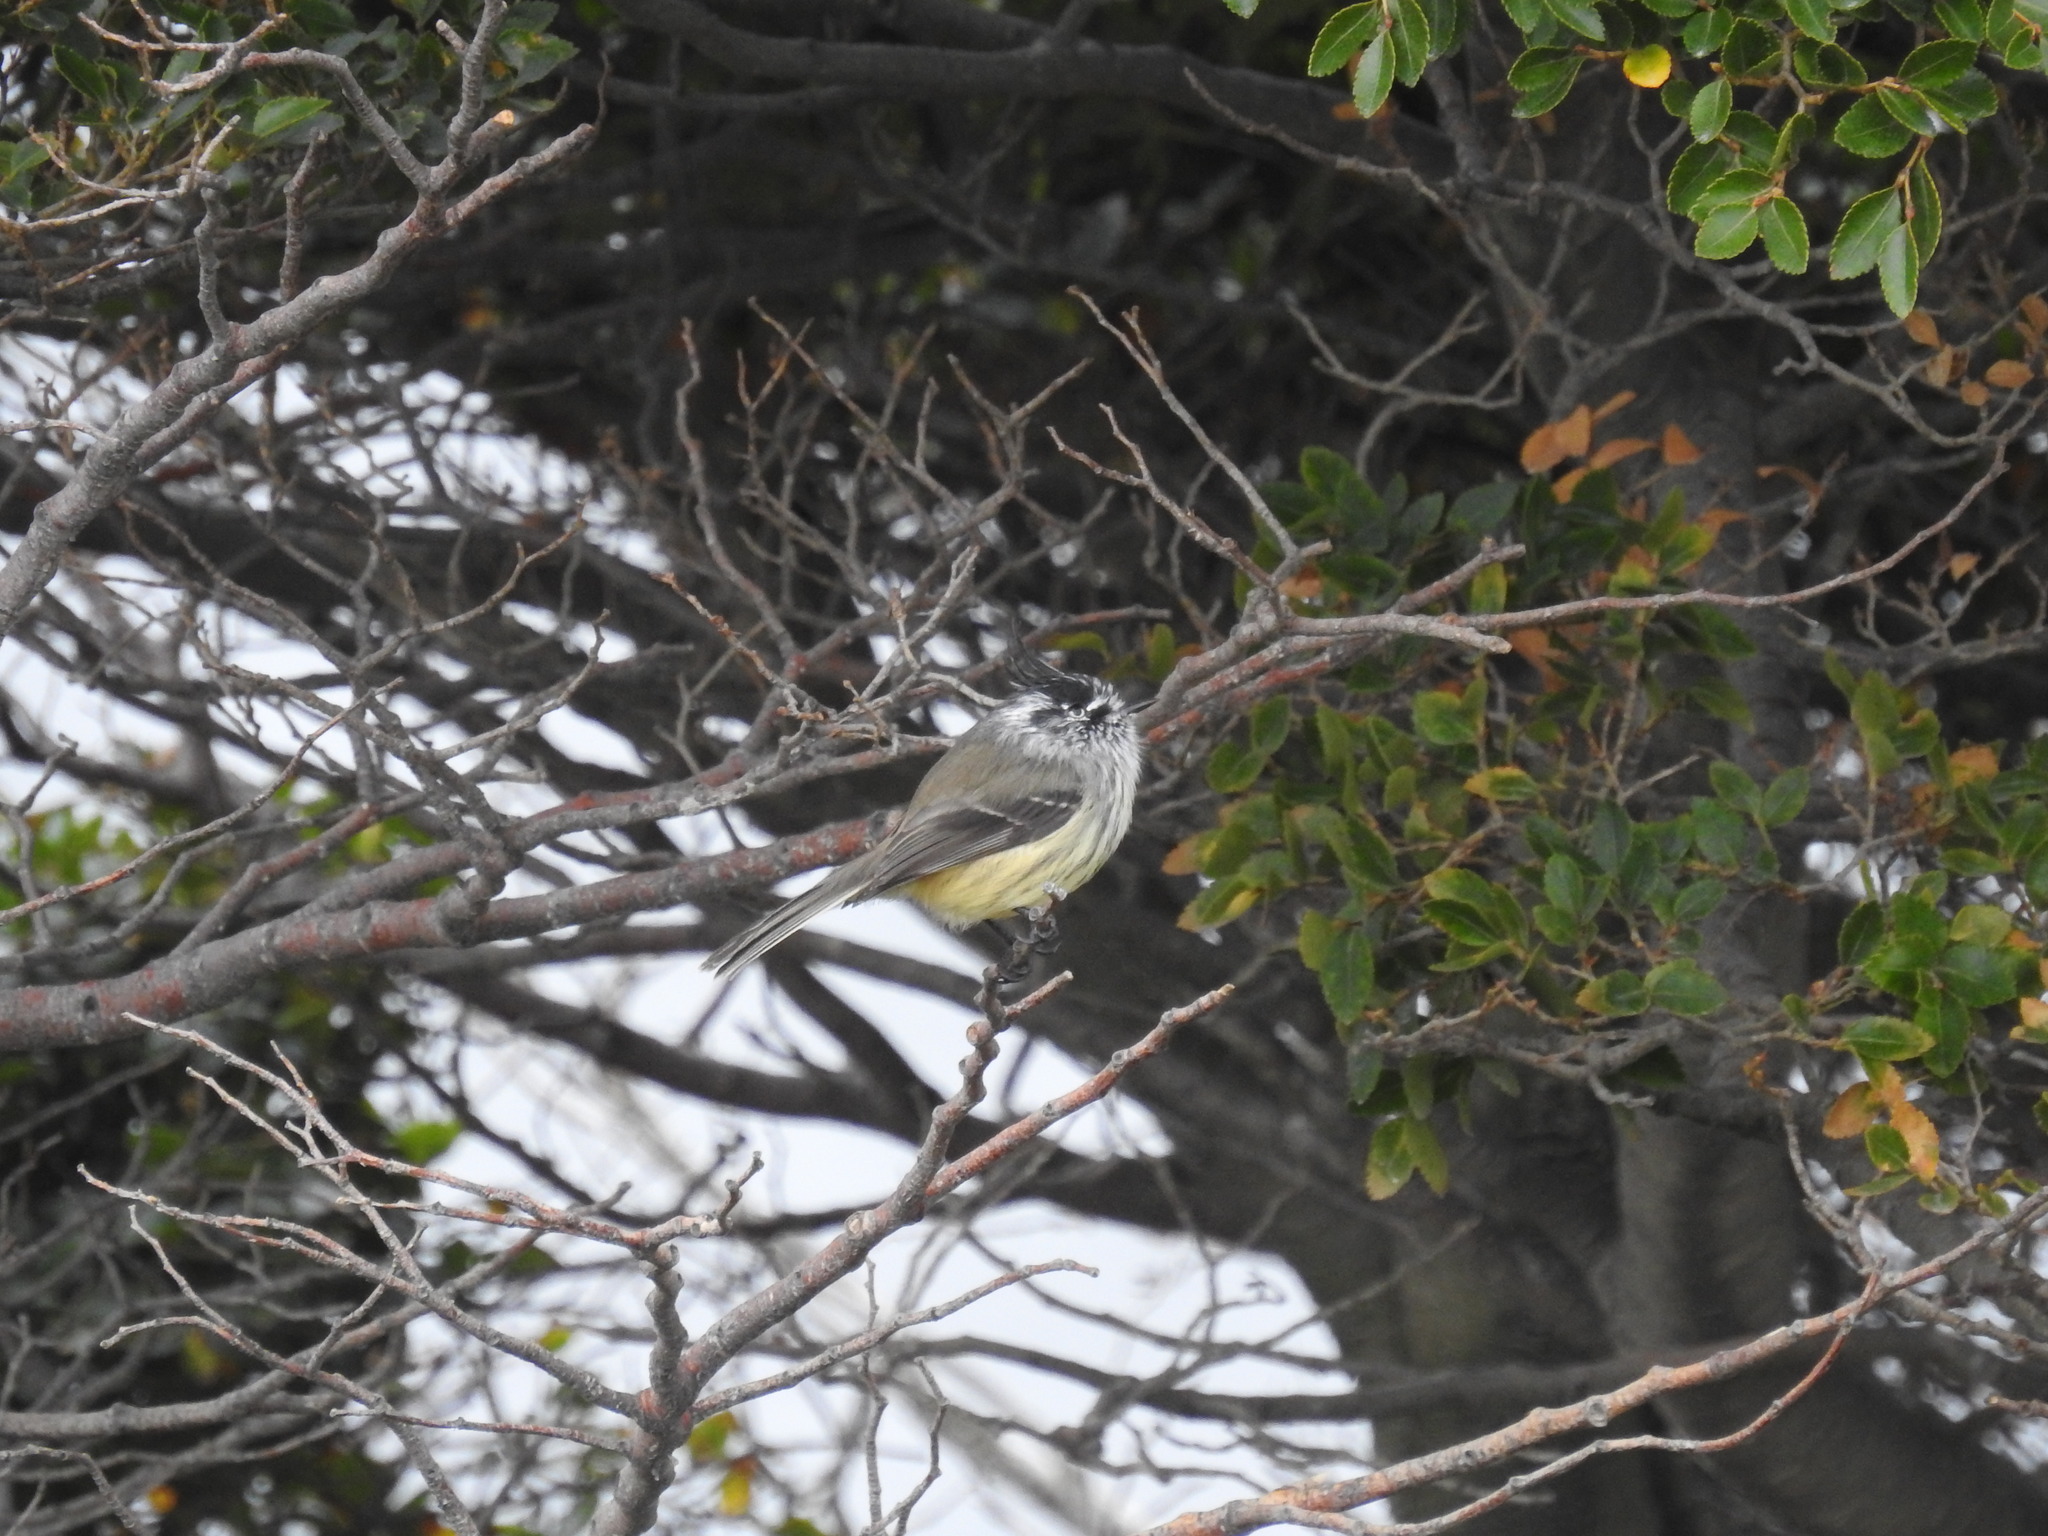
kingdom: Animalia
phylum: Chordata
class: Aves
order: Passeriformes
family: Tyrannidae
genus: Anairetes
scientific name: Anairetes parulus
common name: Tufted tit-tyrant
